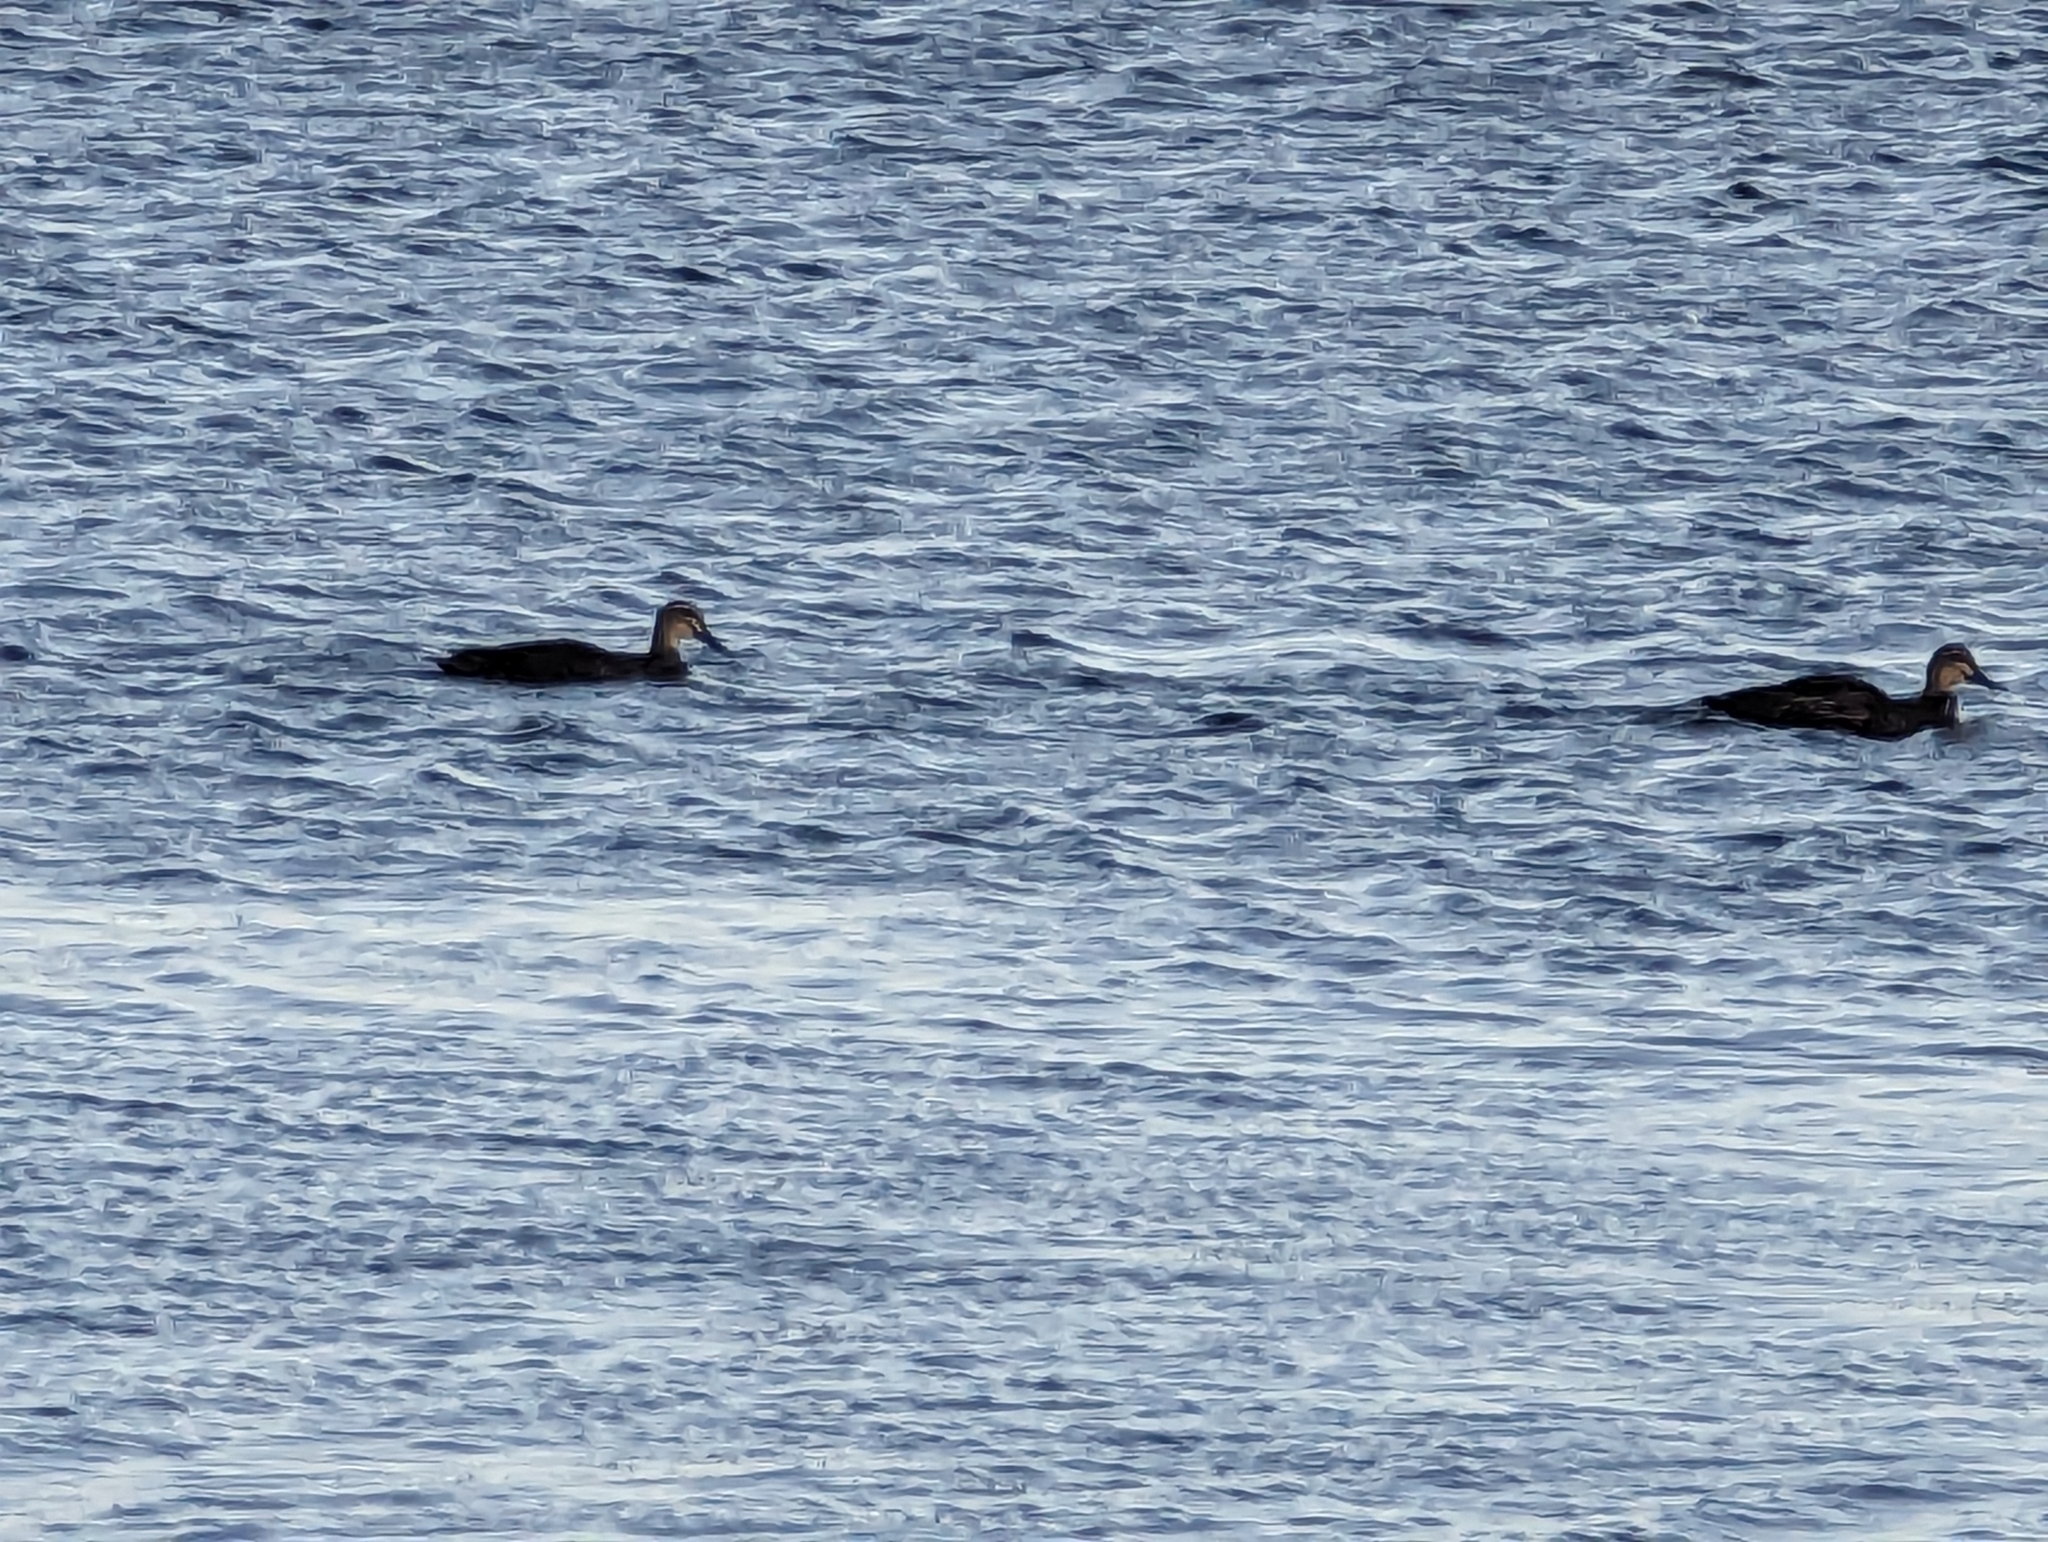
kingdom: Animalia
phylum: Chordata
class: Aves
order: Anseriformes
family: Anatidae
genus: Anas
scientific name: Anas superciliosa
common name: Pacific black duck
